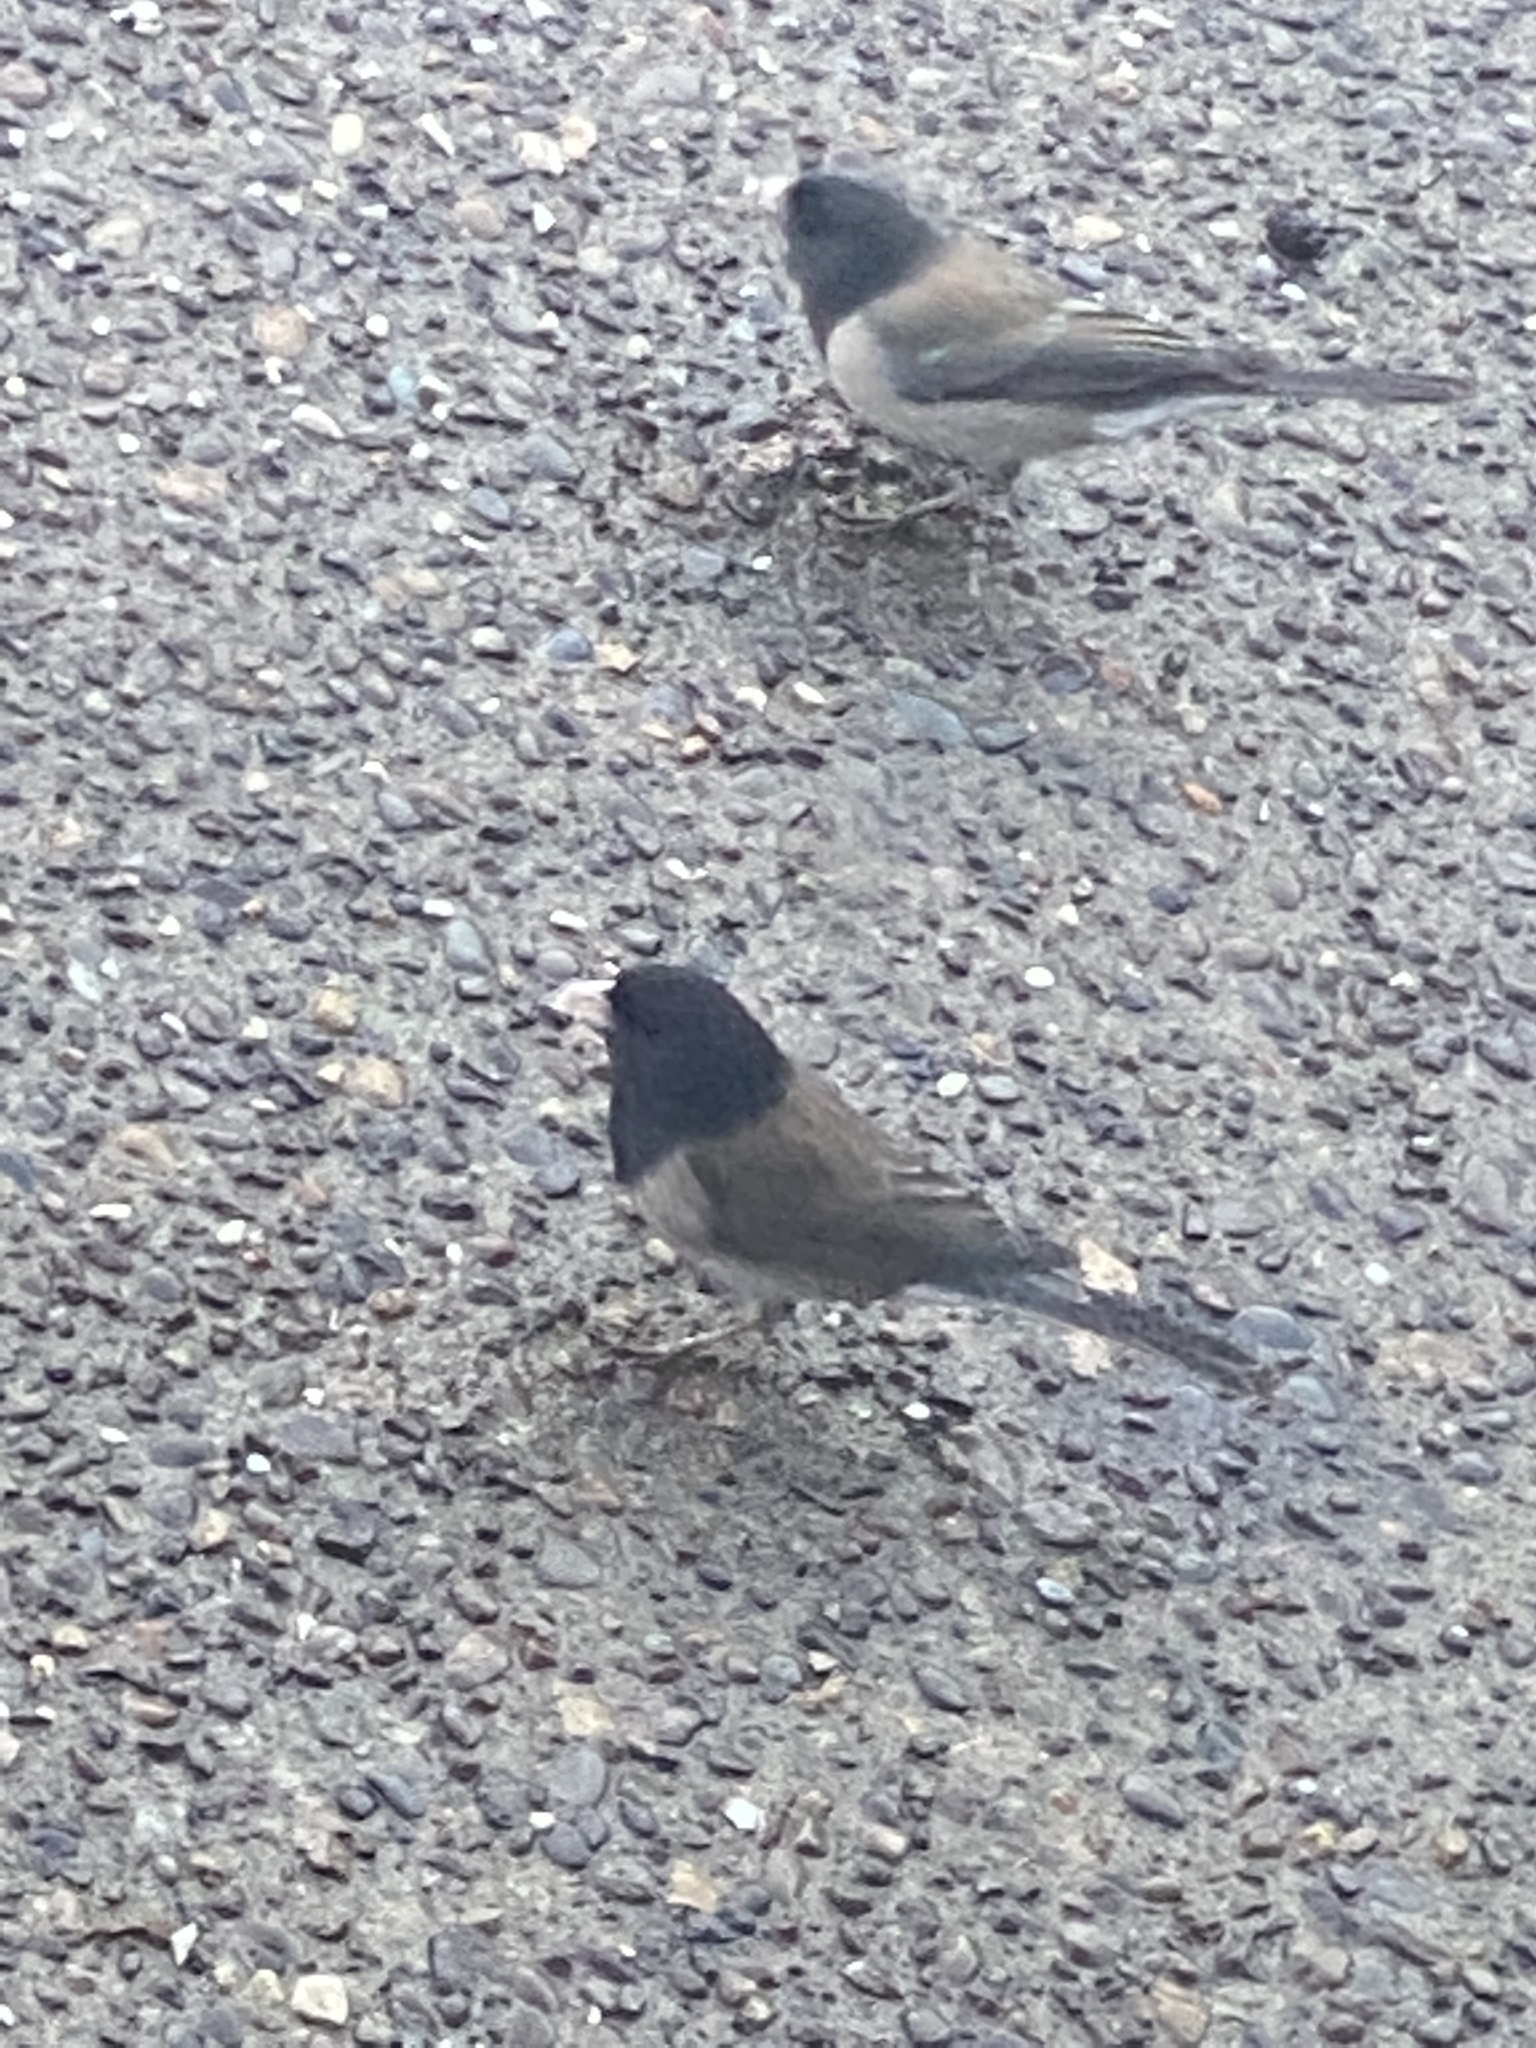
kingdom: Animalia
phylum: Chordata
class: Aves
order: Passeriformes
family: Passerellidae
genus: Junco
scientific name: Junco hyemalis
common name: Dark-eyed junco
